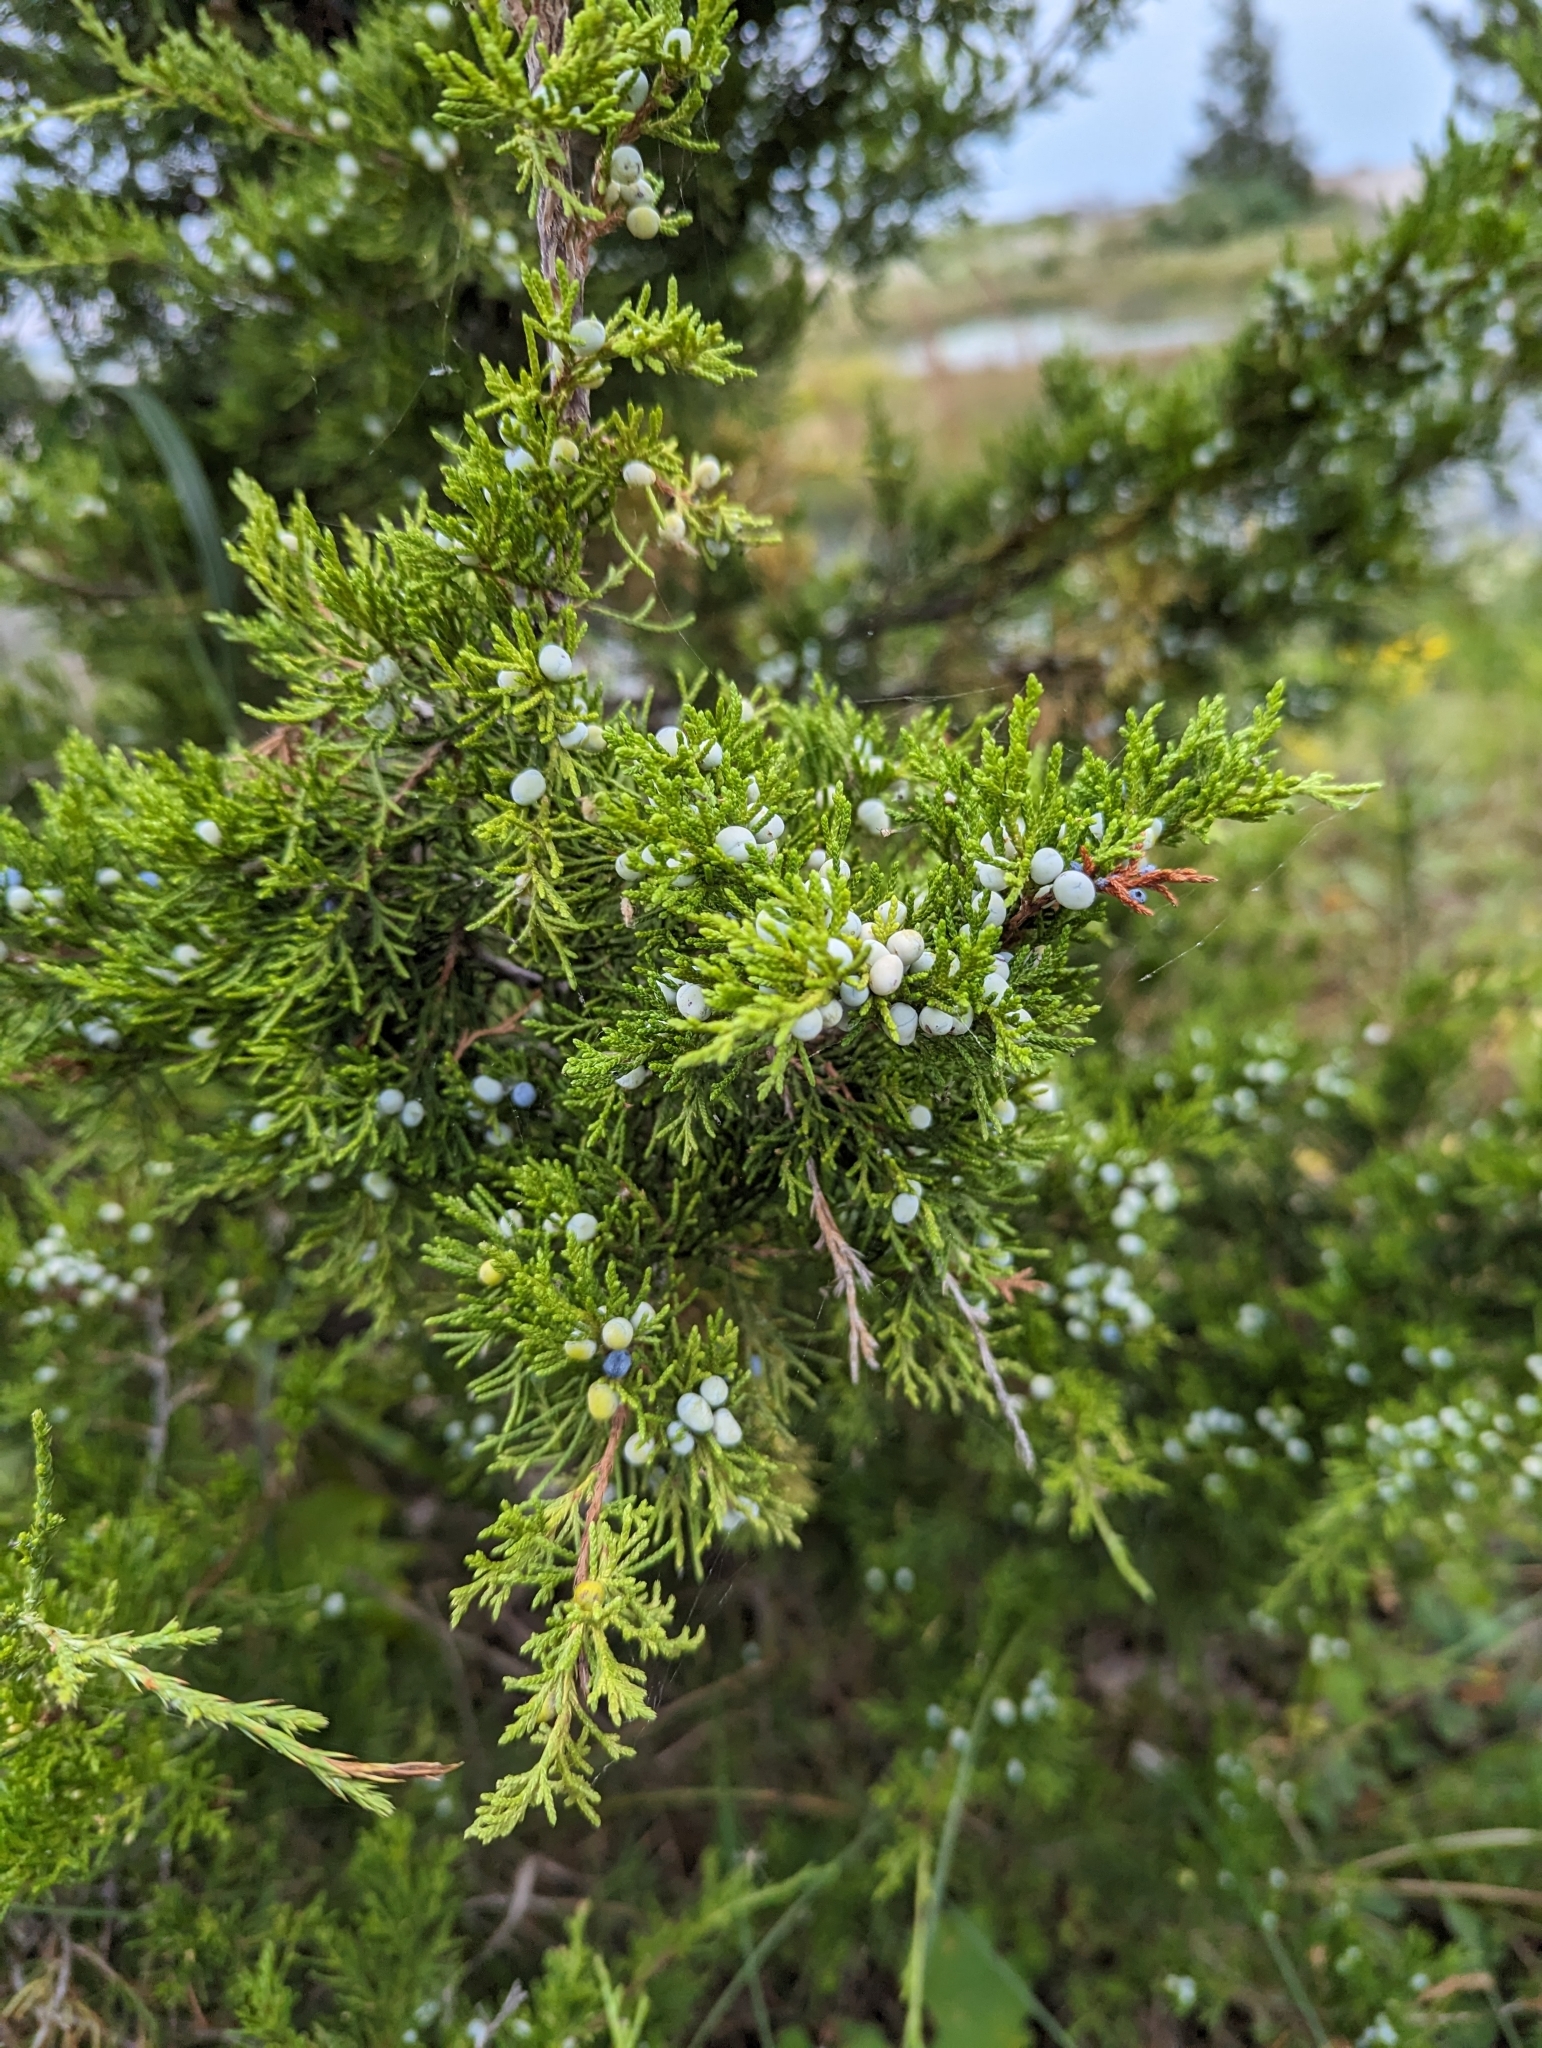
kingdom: Plantae
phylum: Tracheophyta
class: Pinopsida
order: Pinales
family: Cupressaceae
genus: Juniperus
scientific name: Juniperus virginiana
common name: Red juniper
